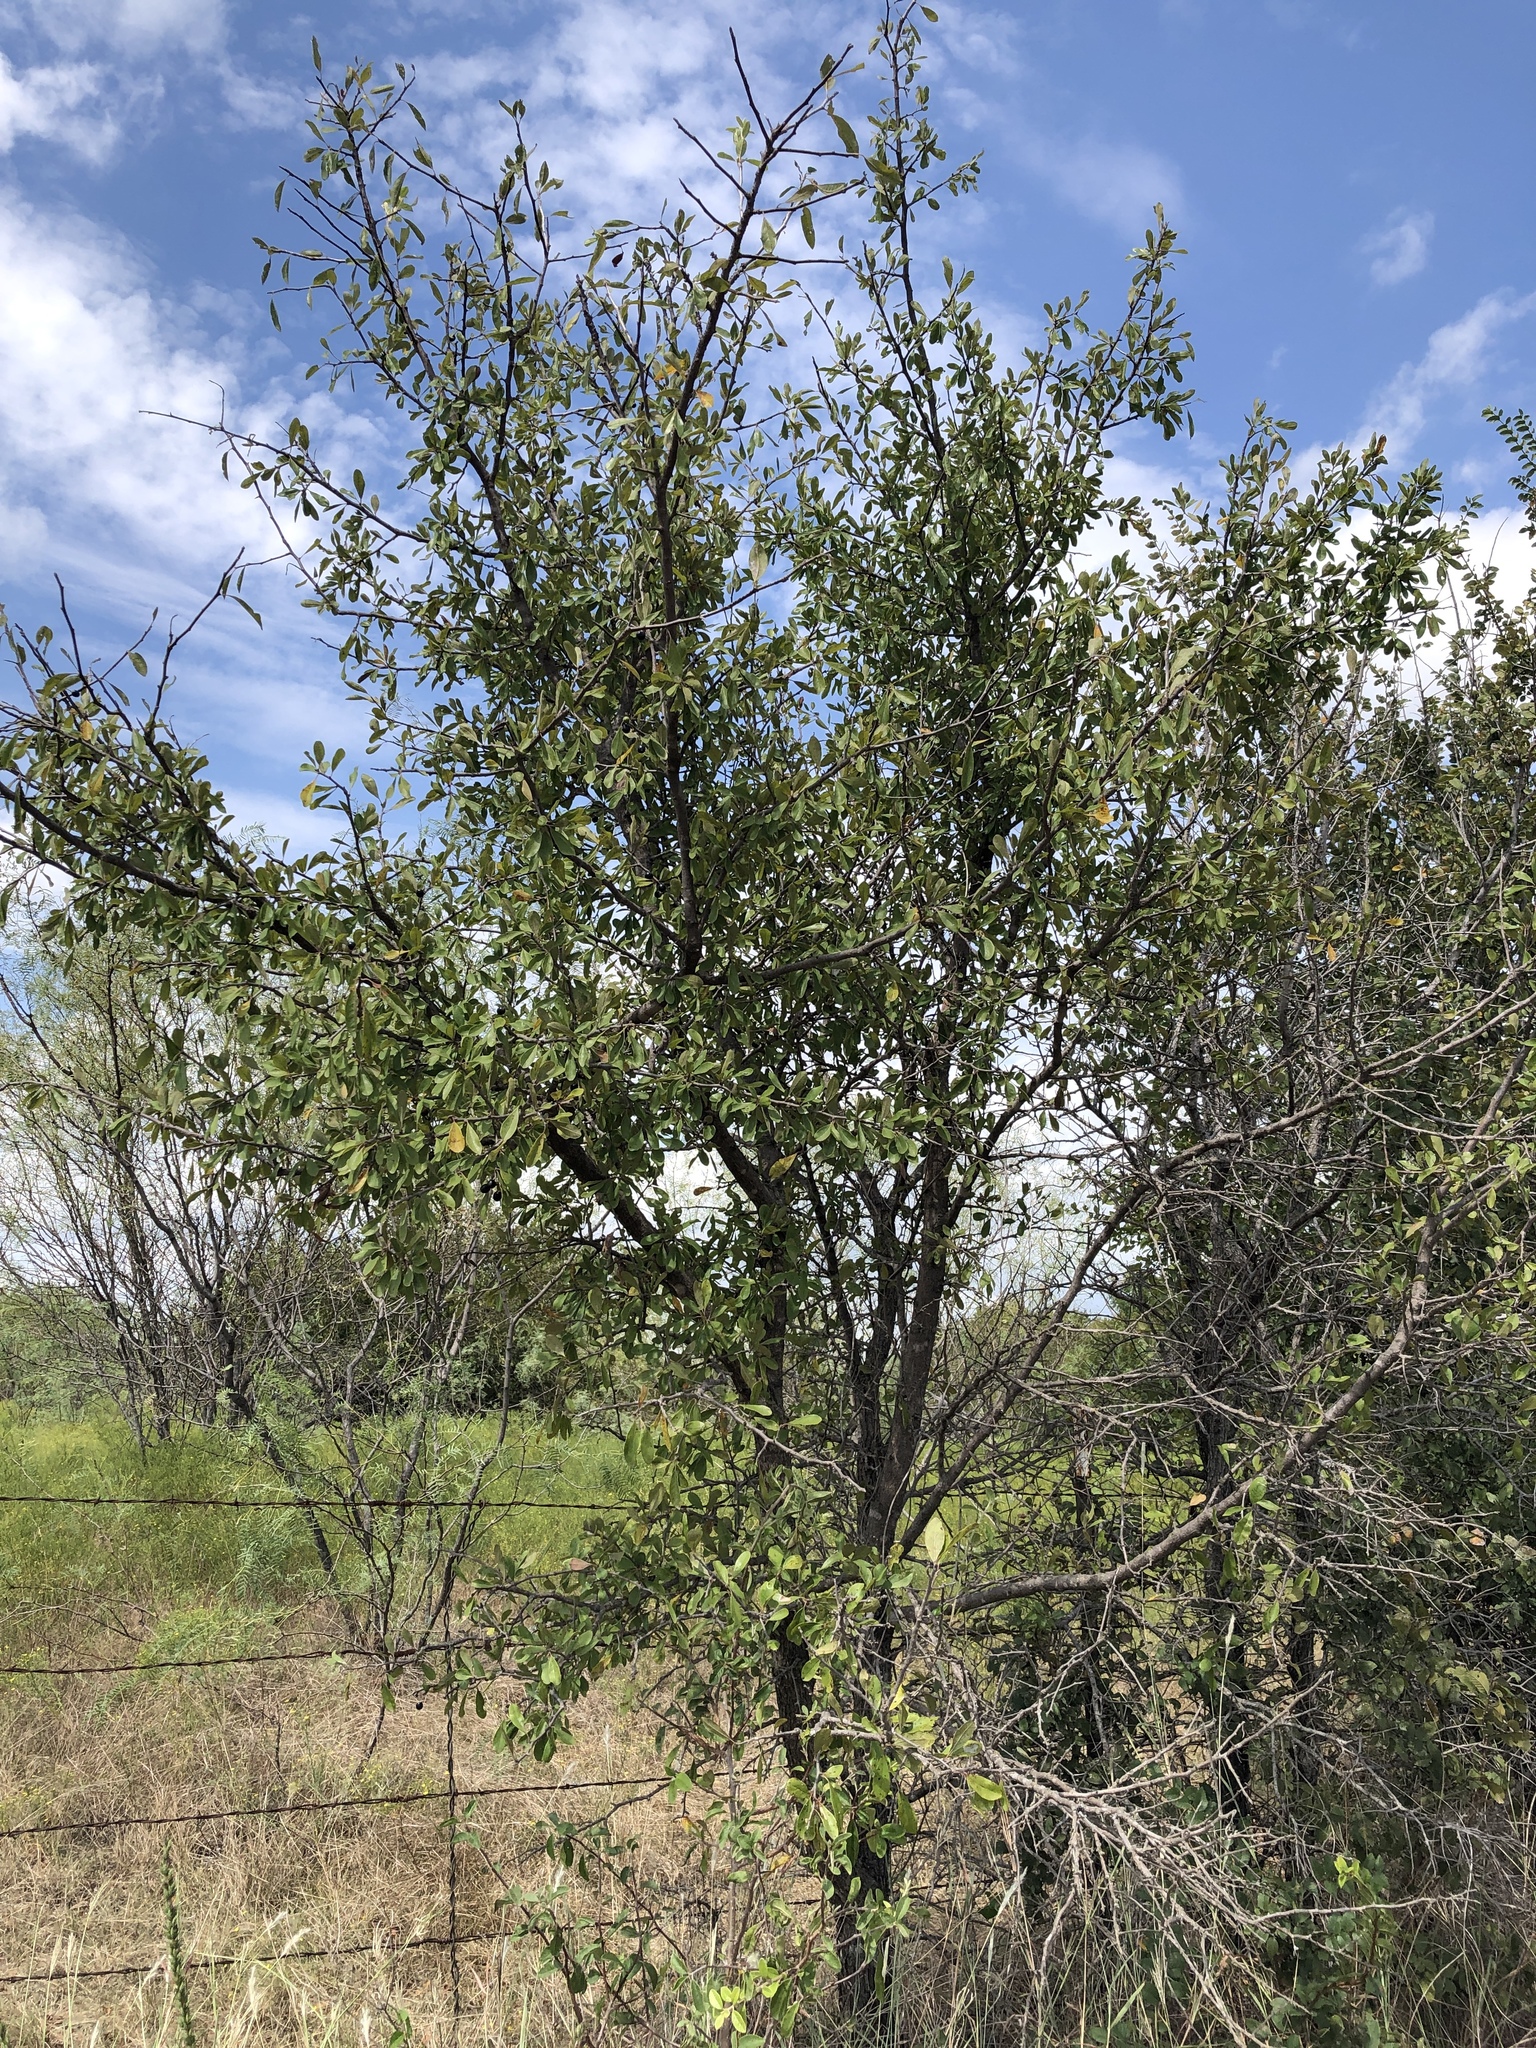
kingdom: Plantae
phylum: Tracheophyta
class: Magnoliopsida
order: Ericales
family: Sapotaceae
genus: Sideroxylon
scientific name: Sideroxylon lanuginosum
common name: Chittamwood
